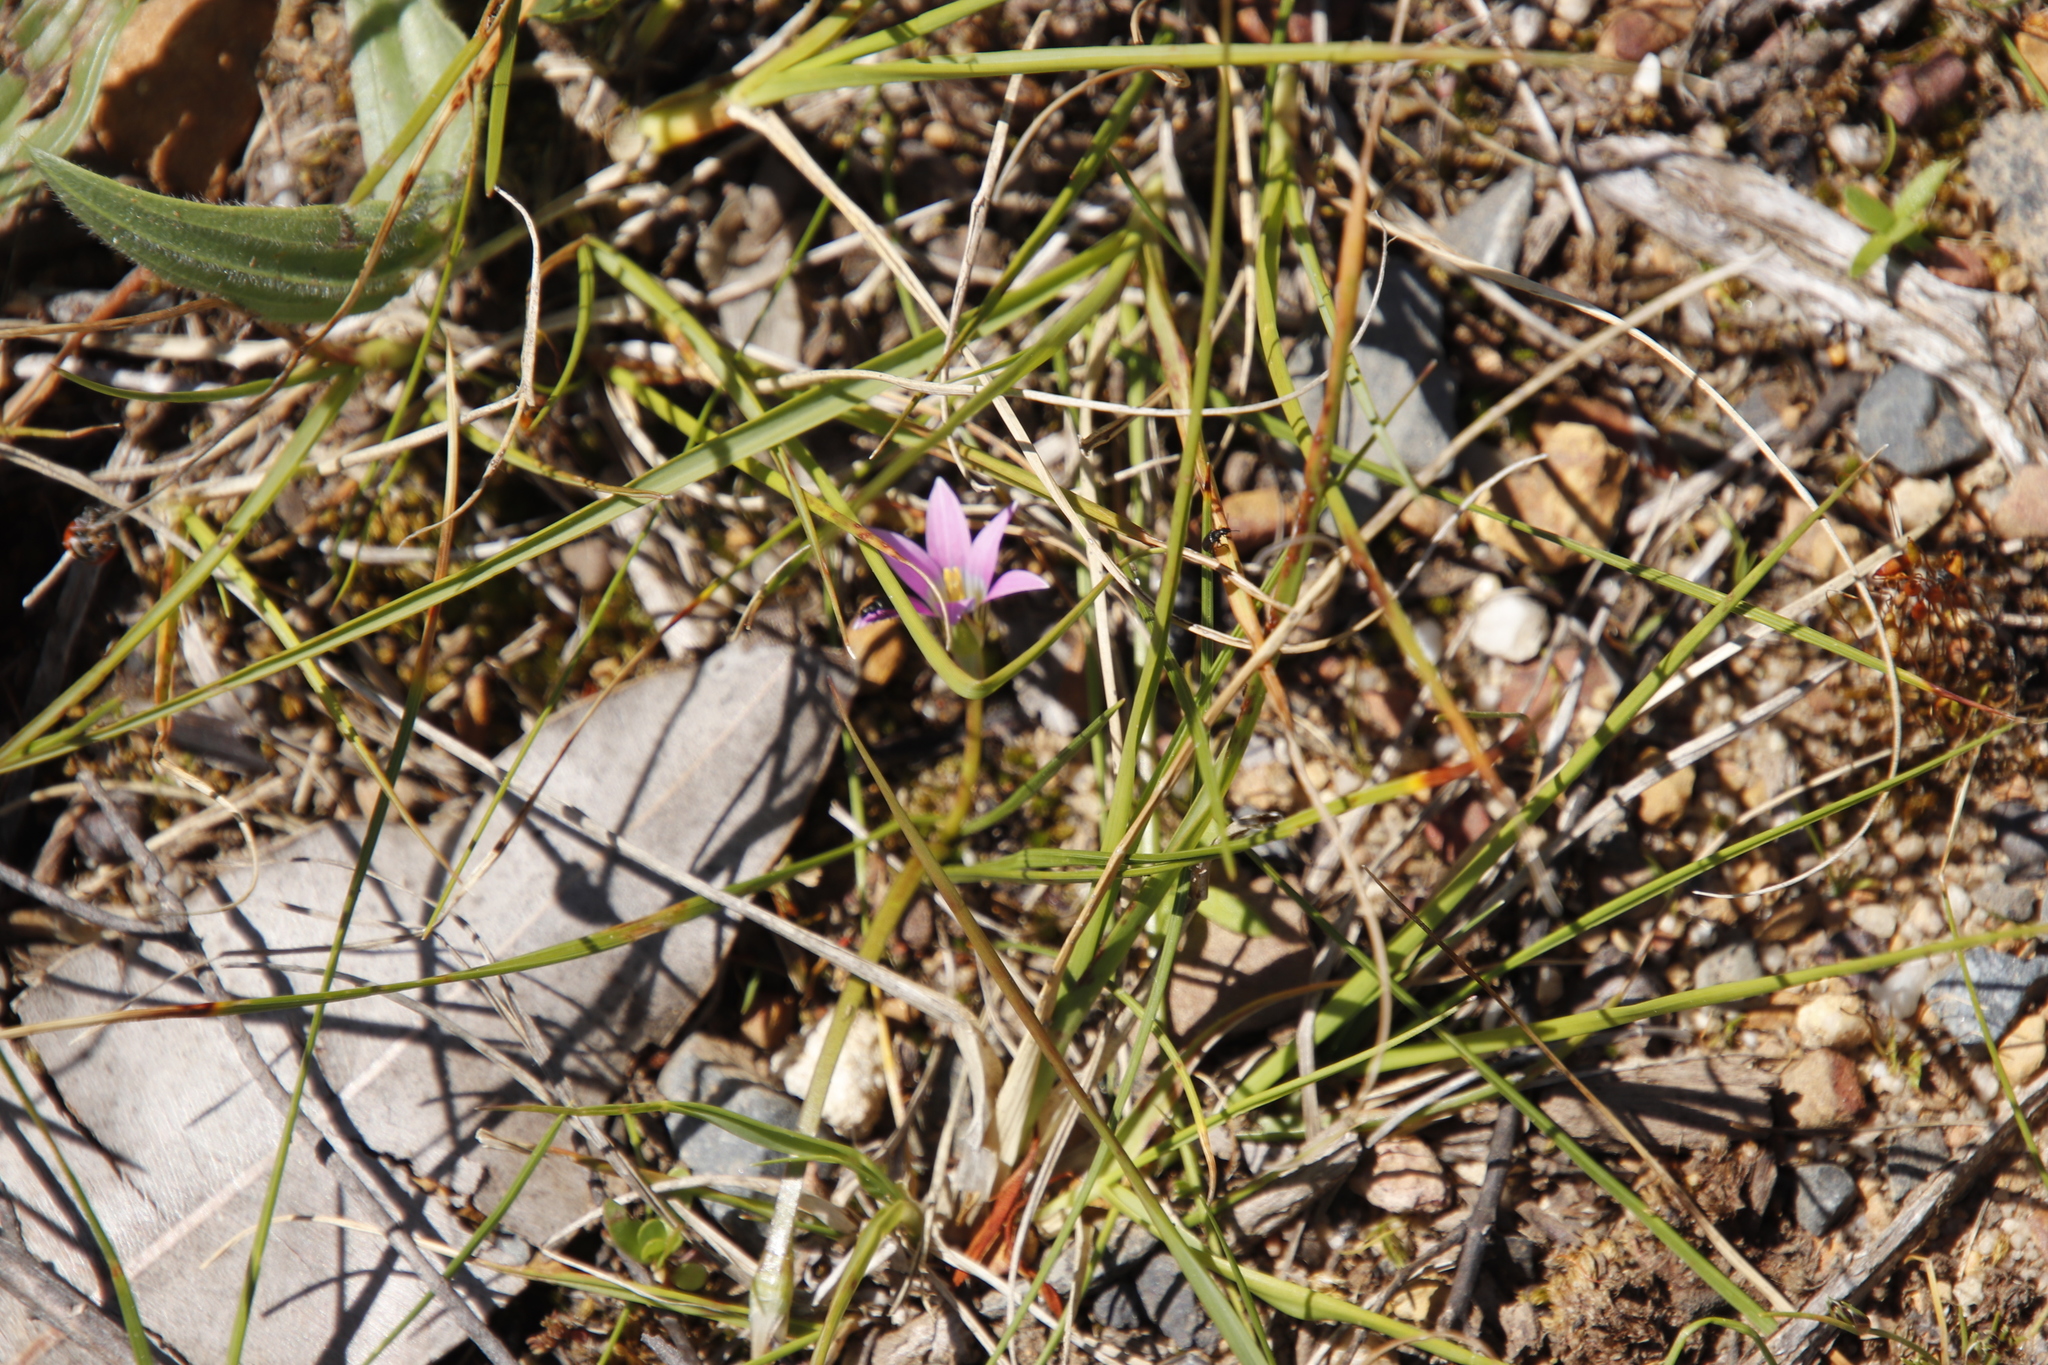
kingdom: Plantae
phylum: Tracheophyta
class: Liliopsida
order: Asparagales
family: Iridaceae
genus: Romulea
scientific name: Romulea rosea
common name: Oniongrass
